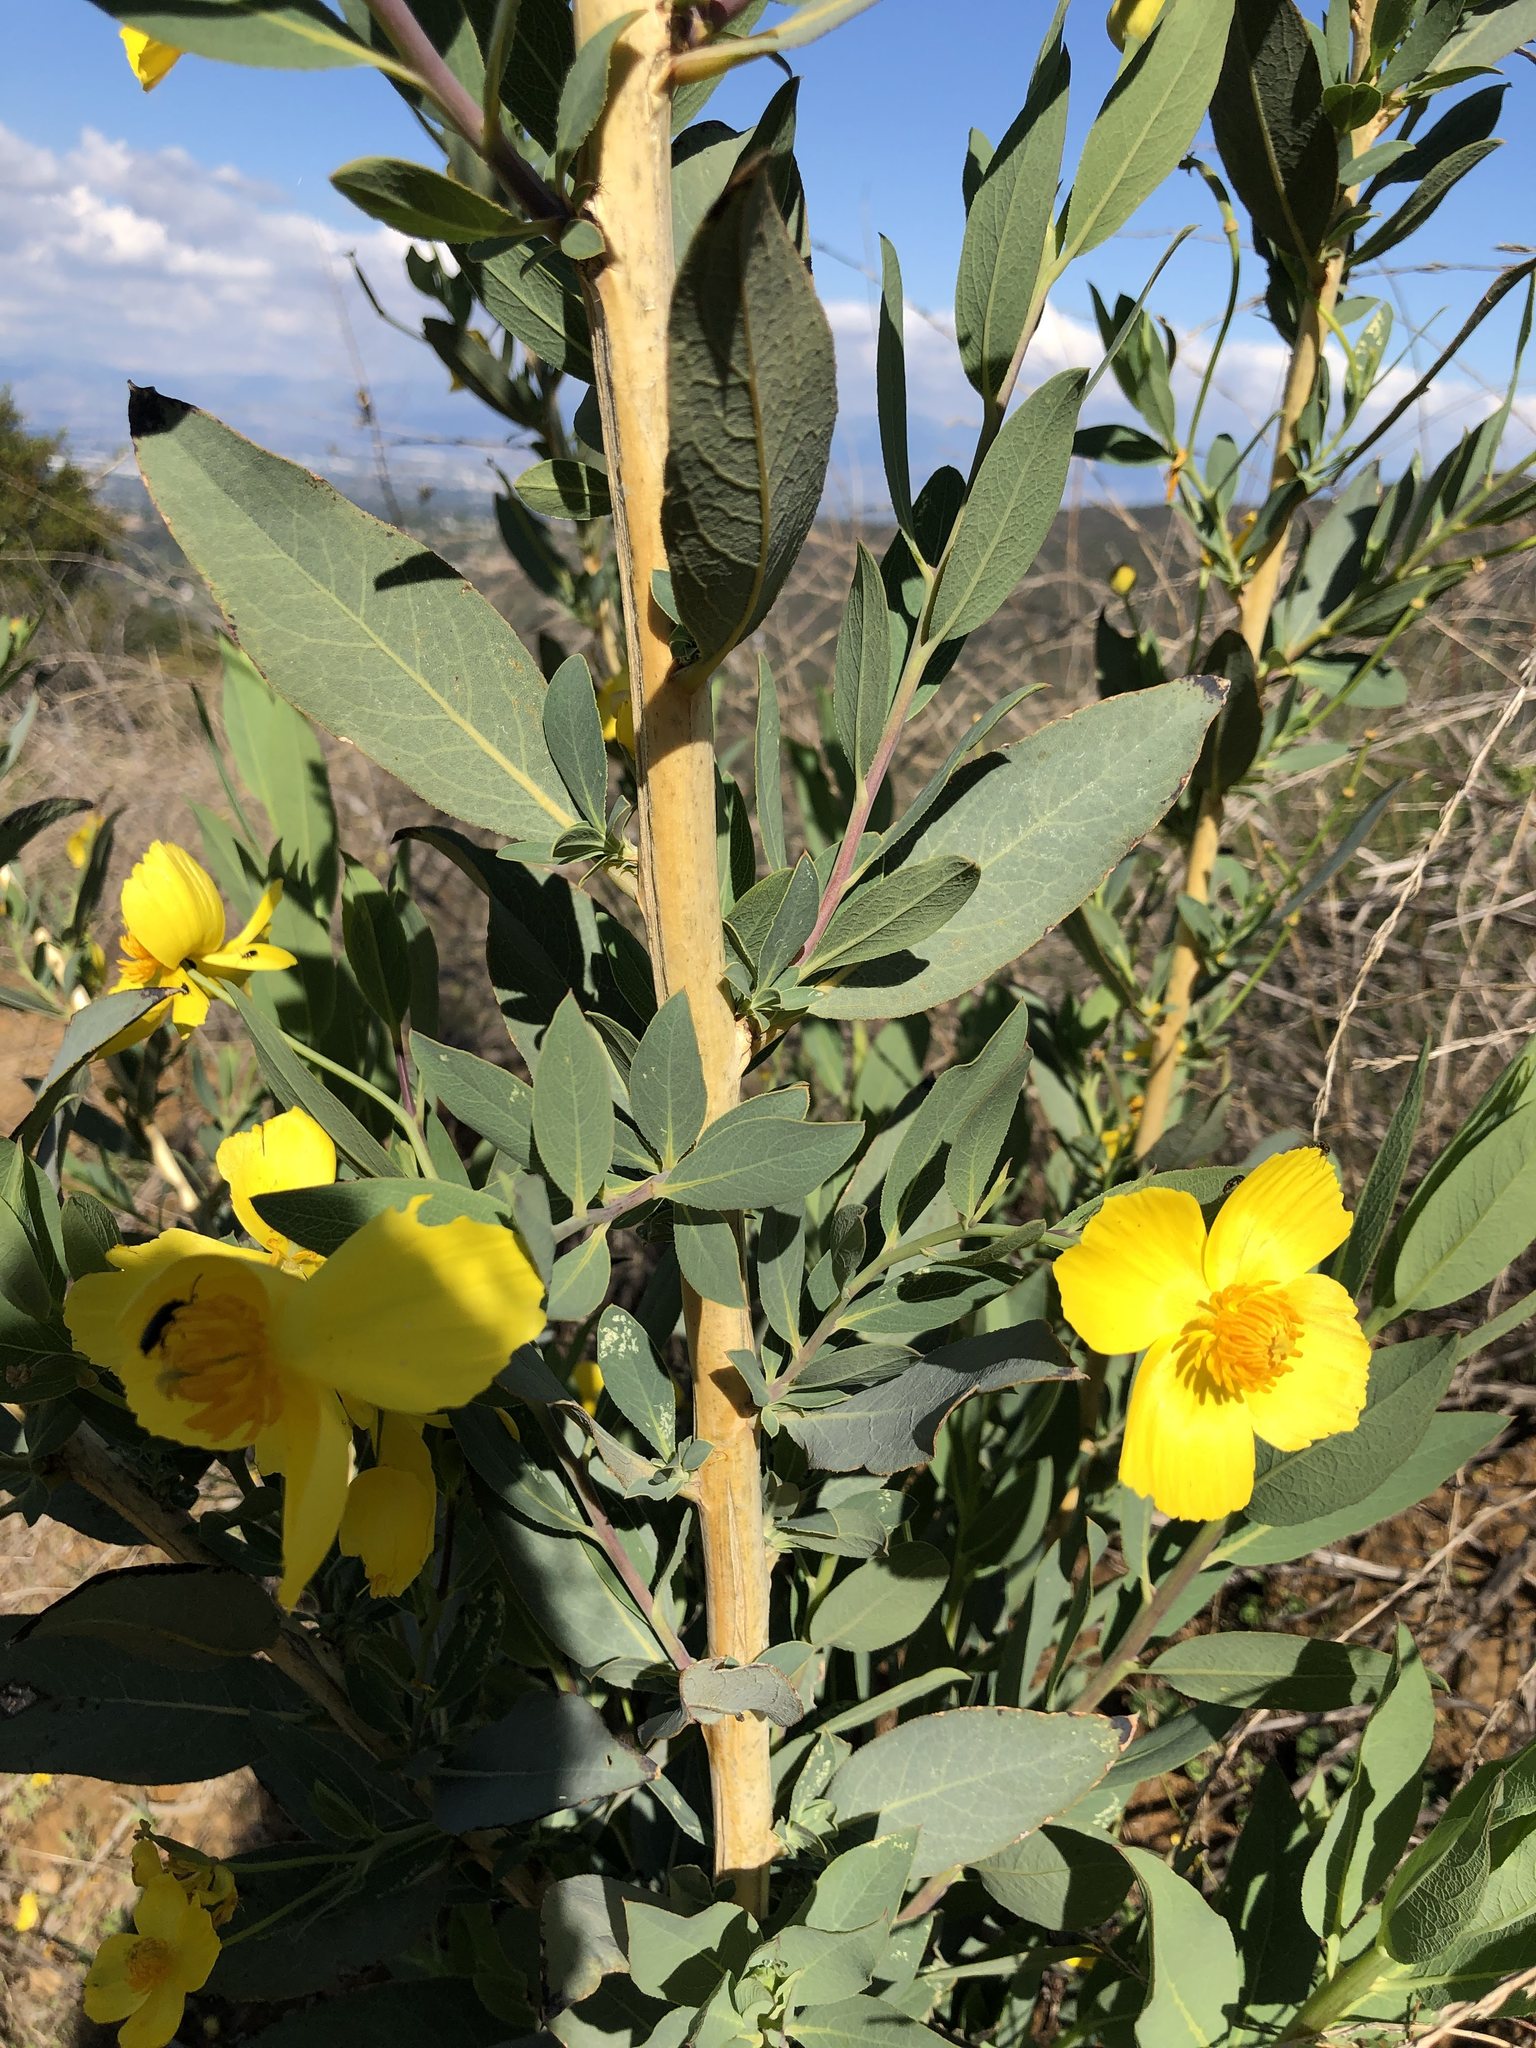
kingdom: Plantae
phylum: Tracheophyta
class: Magnoliopsida
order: Ranunculales
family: Papaveraceae
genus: Dendromecon
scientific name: Dendromecon rigida
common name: Tree poppy
